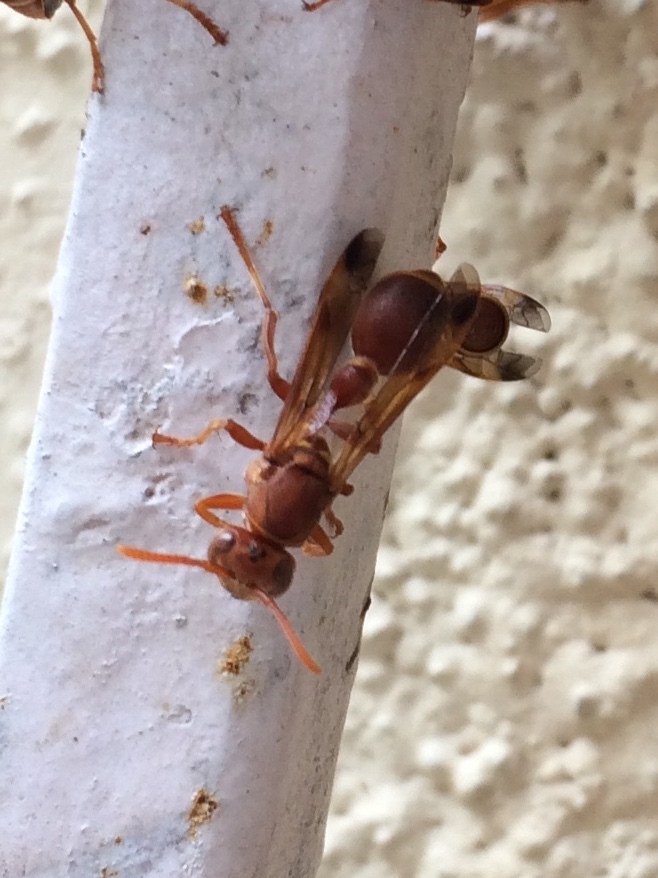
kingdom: Animalia
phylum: Arthropoda
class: Insecta
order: Hymenoptera
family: Vespidae
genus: Ropalidia
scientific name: Ropalidia marginata
